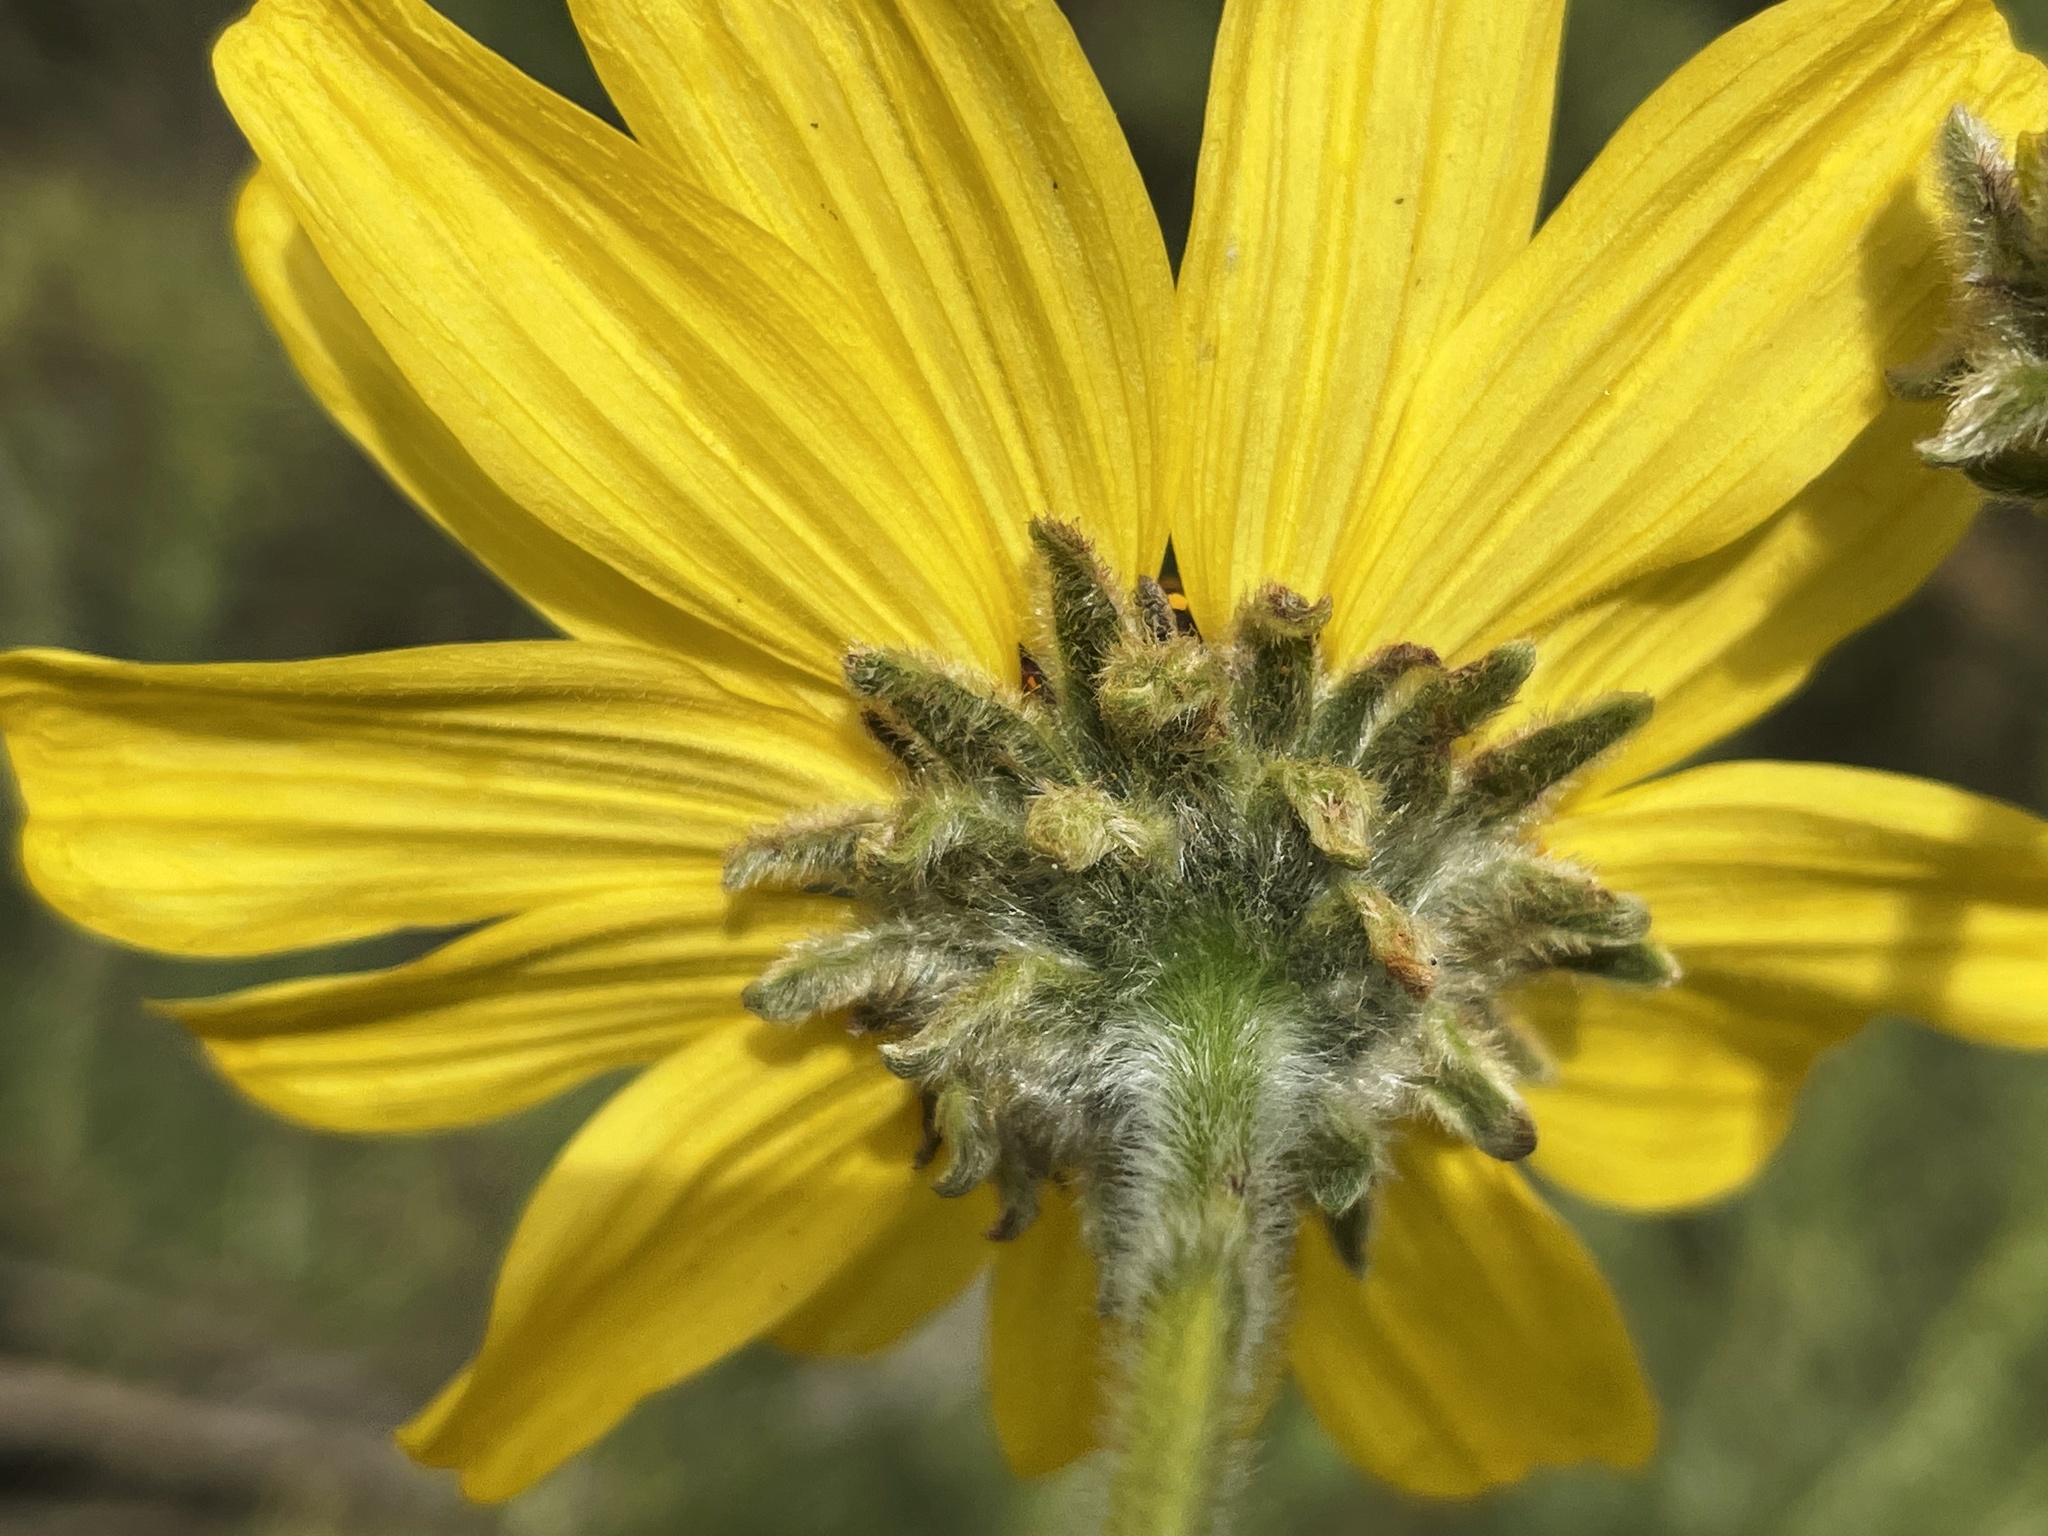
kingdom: Plantae
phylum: Tracheophyta
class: Magnoliopsida
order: Asterales
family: Asteraceae
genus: Encelia
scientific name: Encelia californica
